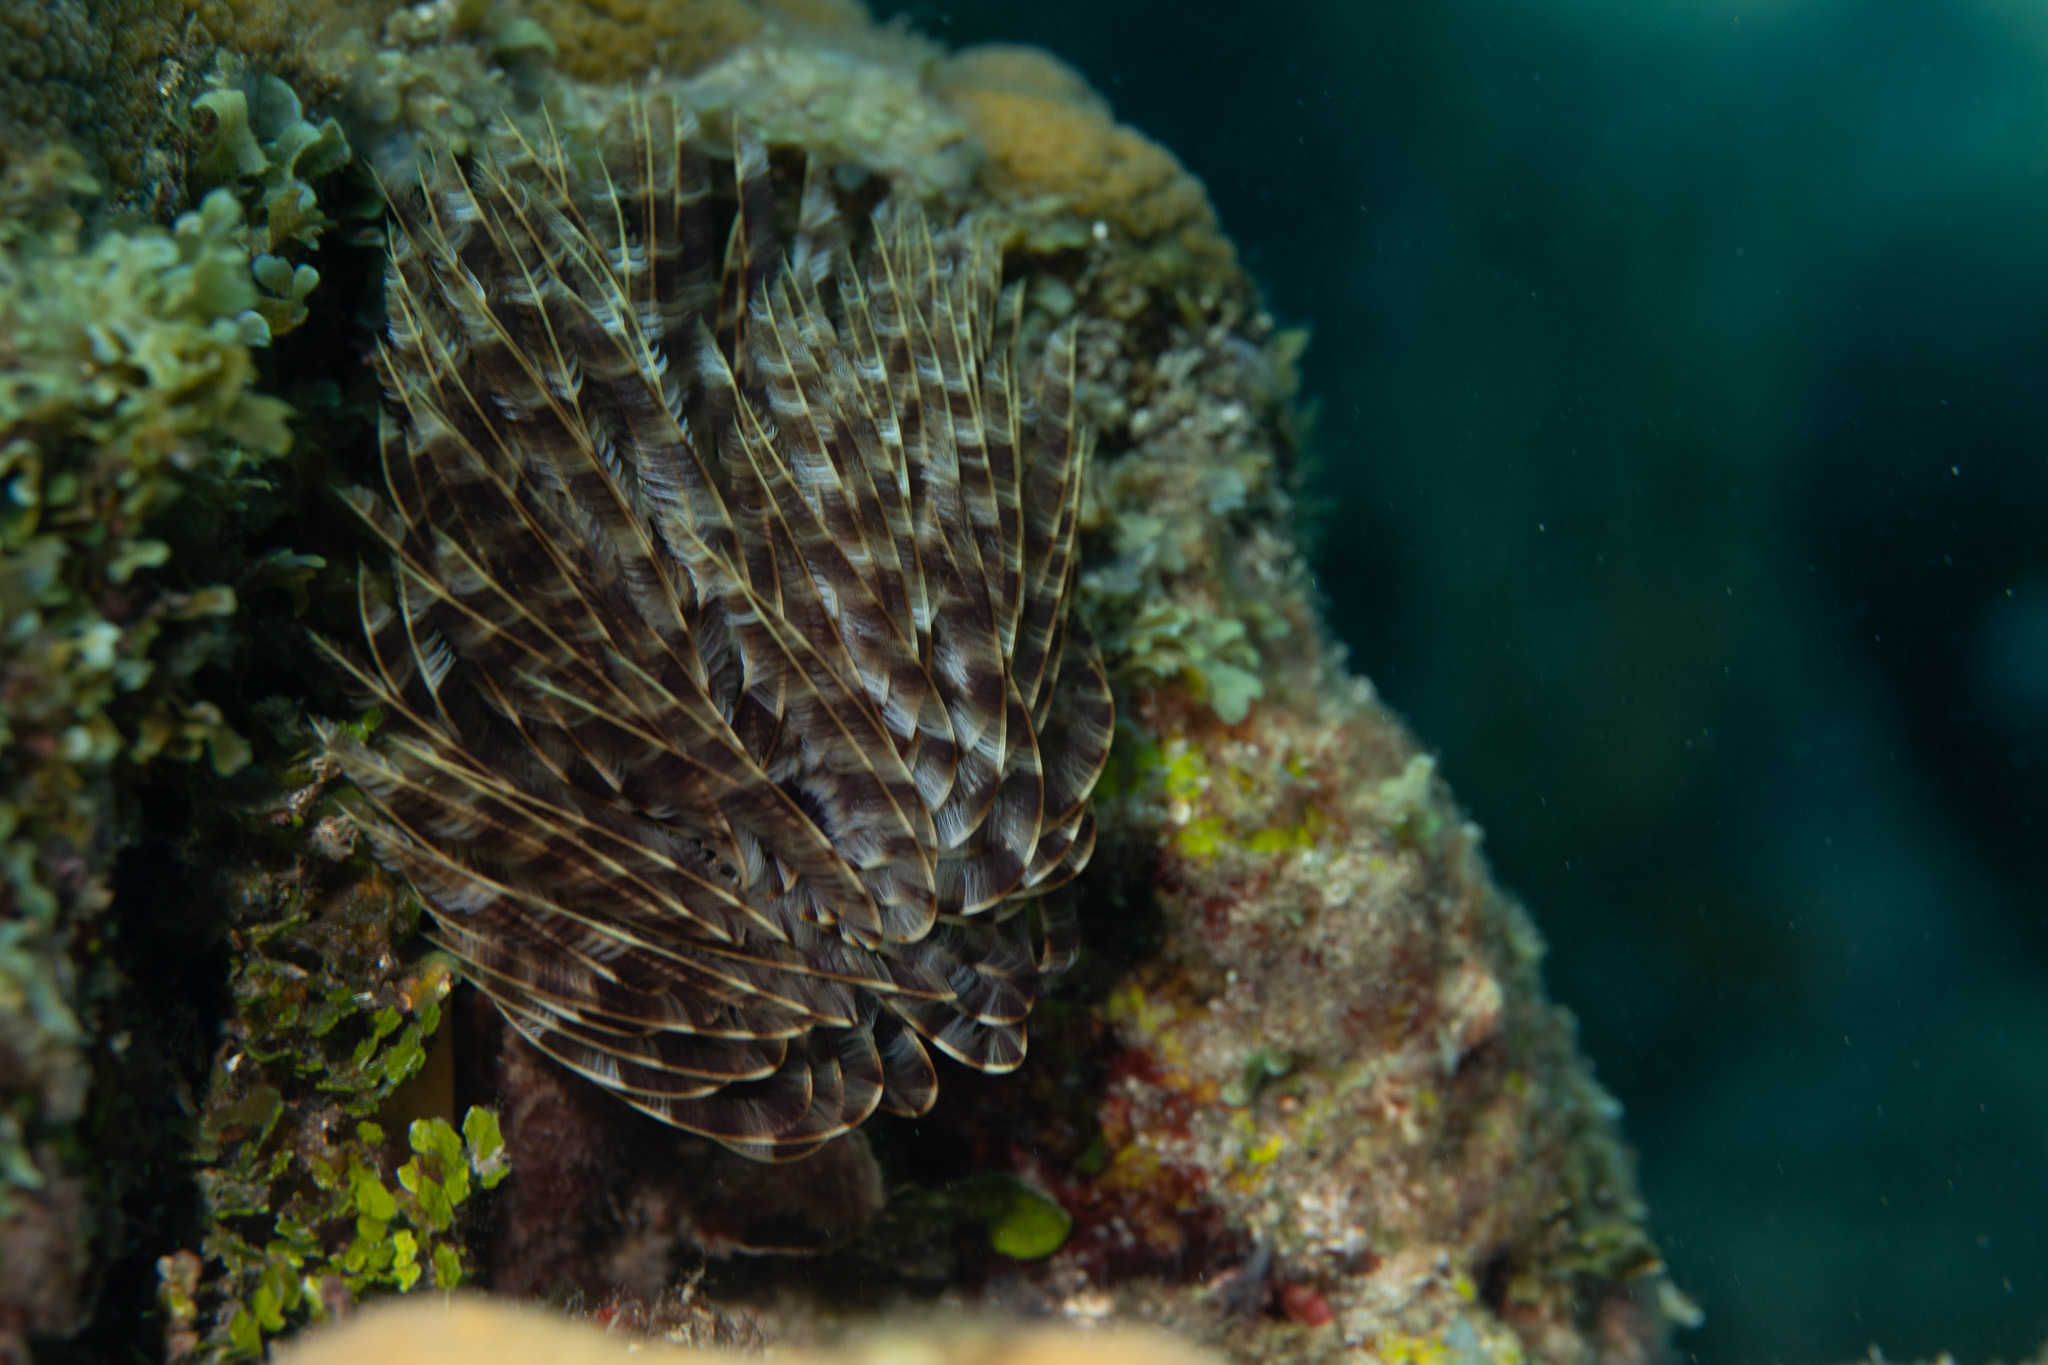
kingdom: Animalia
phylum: Annelida
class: Polychaeta
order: Sabellida
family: Sabellidae
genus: Sabellastarte
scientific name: Sabellastarte magnifica
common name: Giant feather-duster worm
